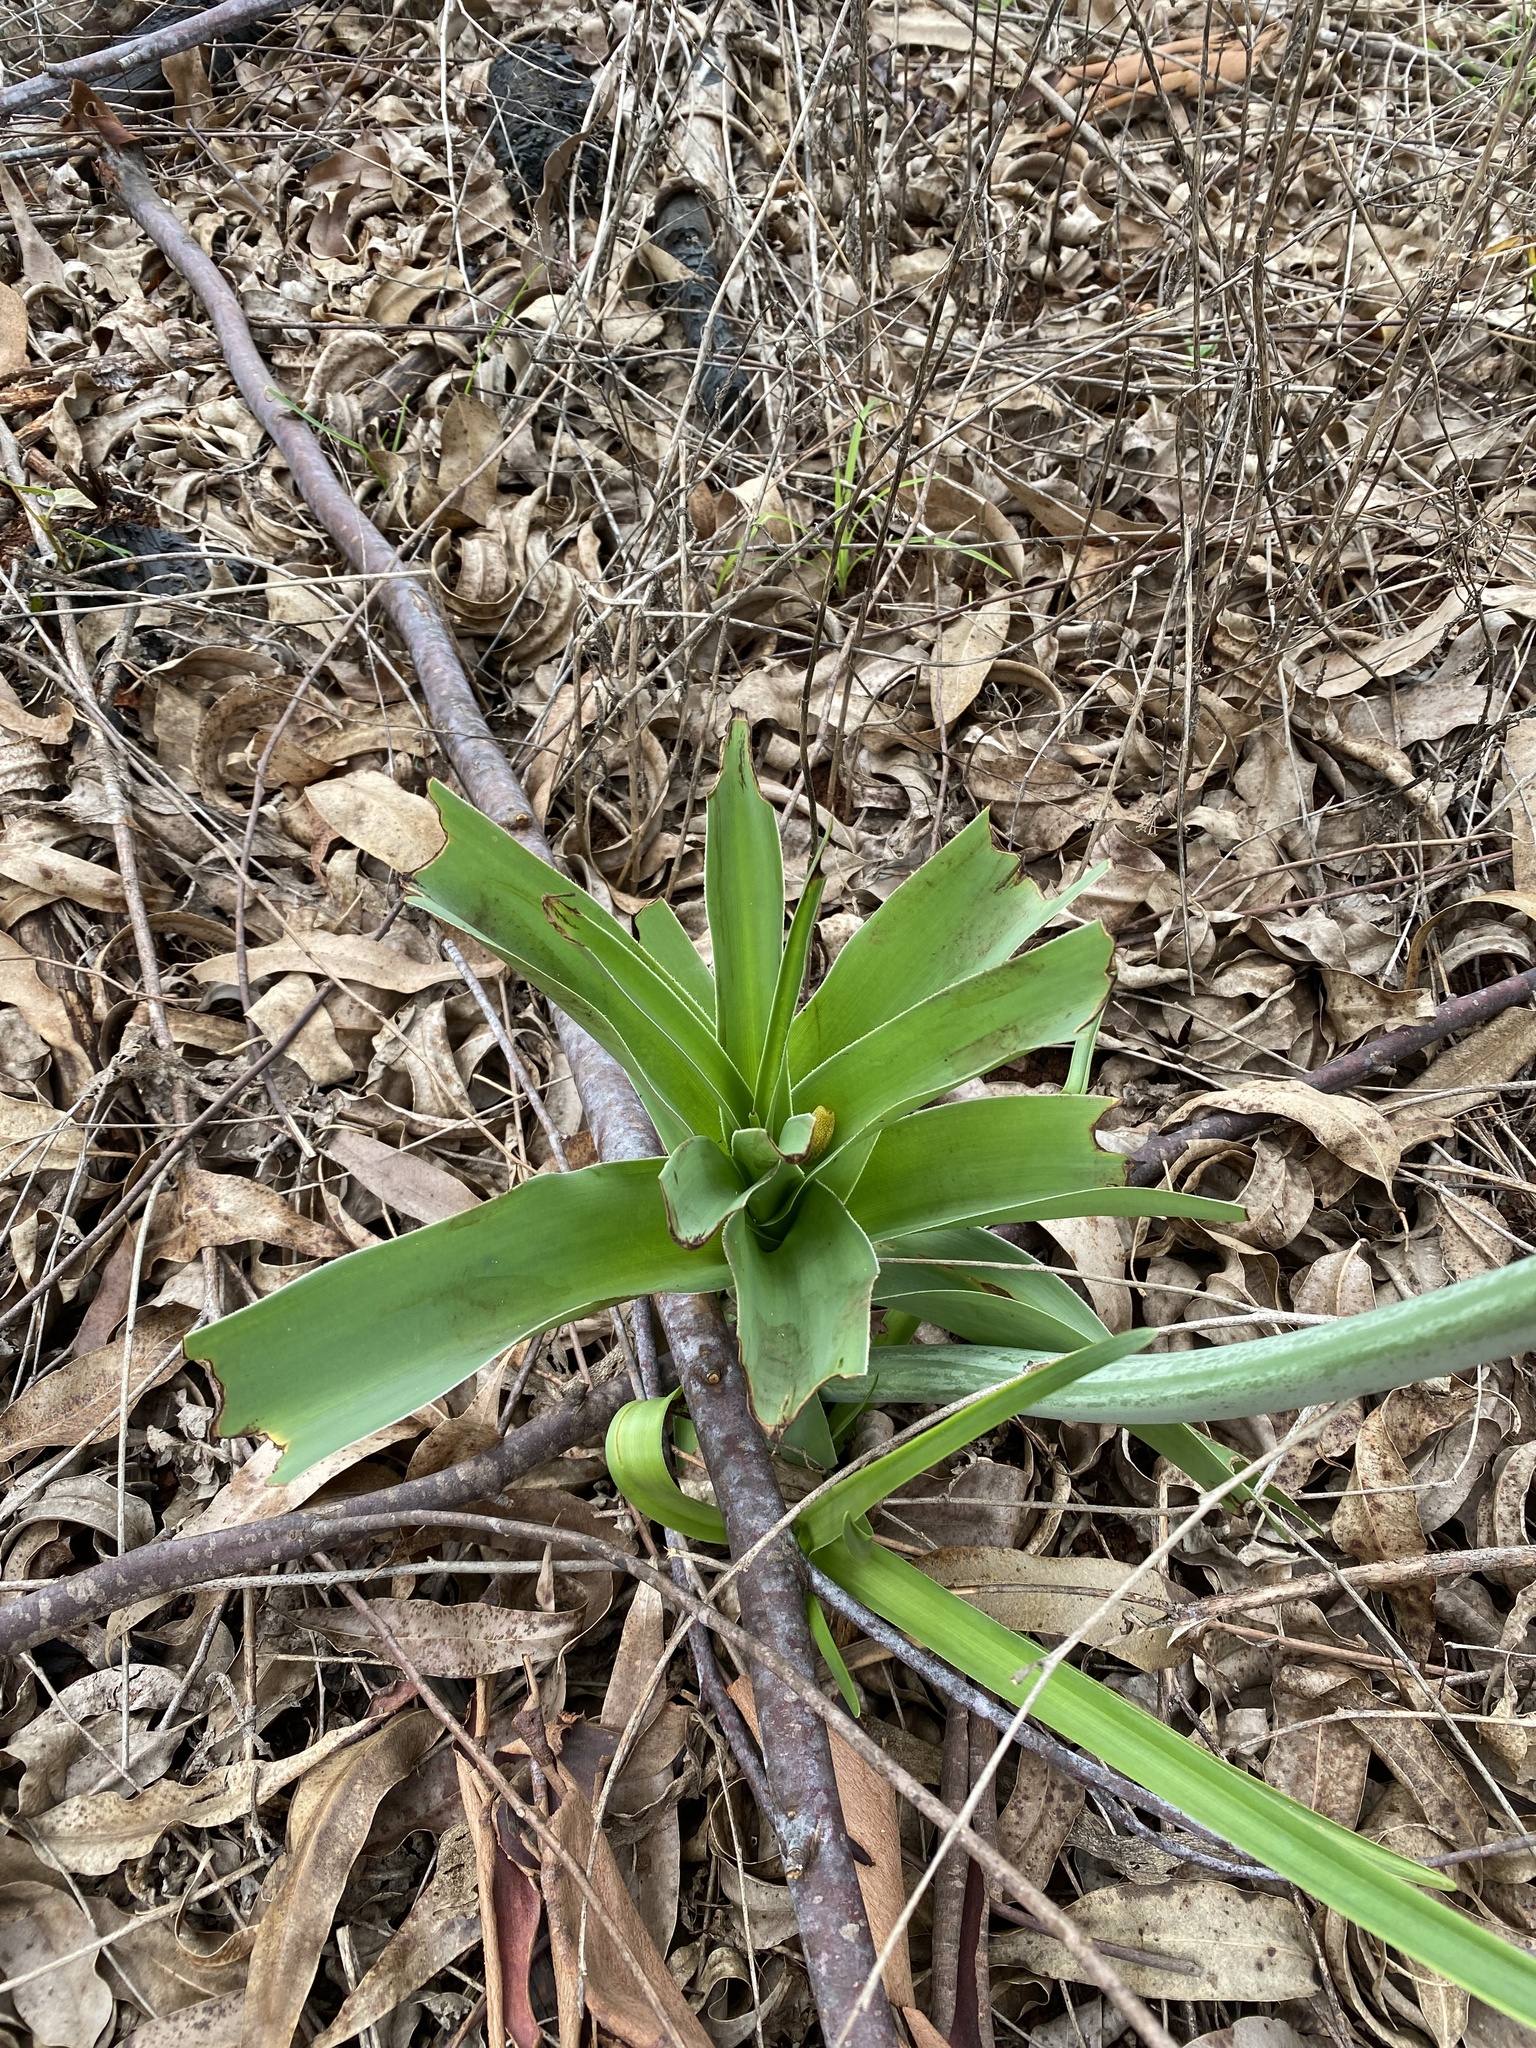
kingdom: Plantae
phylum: Tracheophyta
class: Liliopsida
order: Asparagales
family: Amaryllidaceae
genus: Crinum
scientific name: Crinum macowanii
